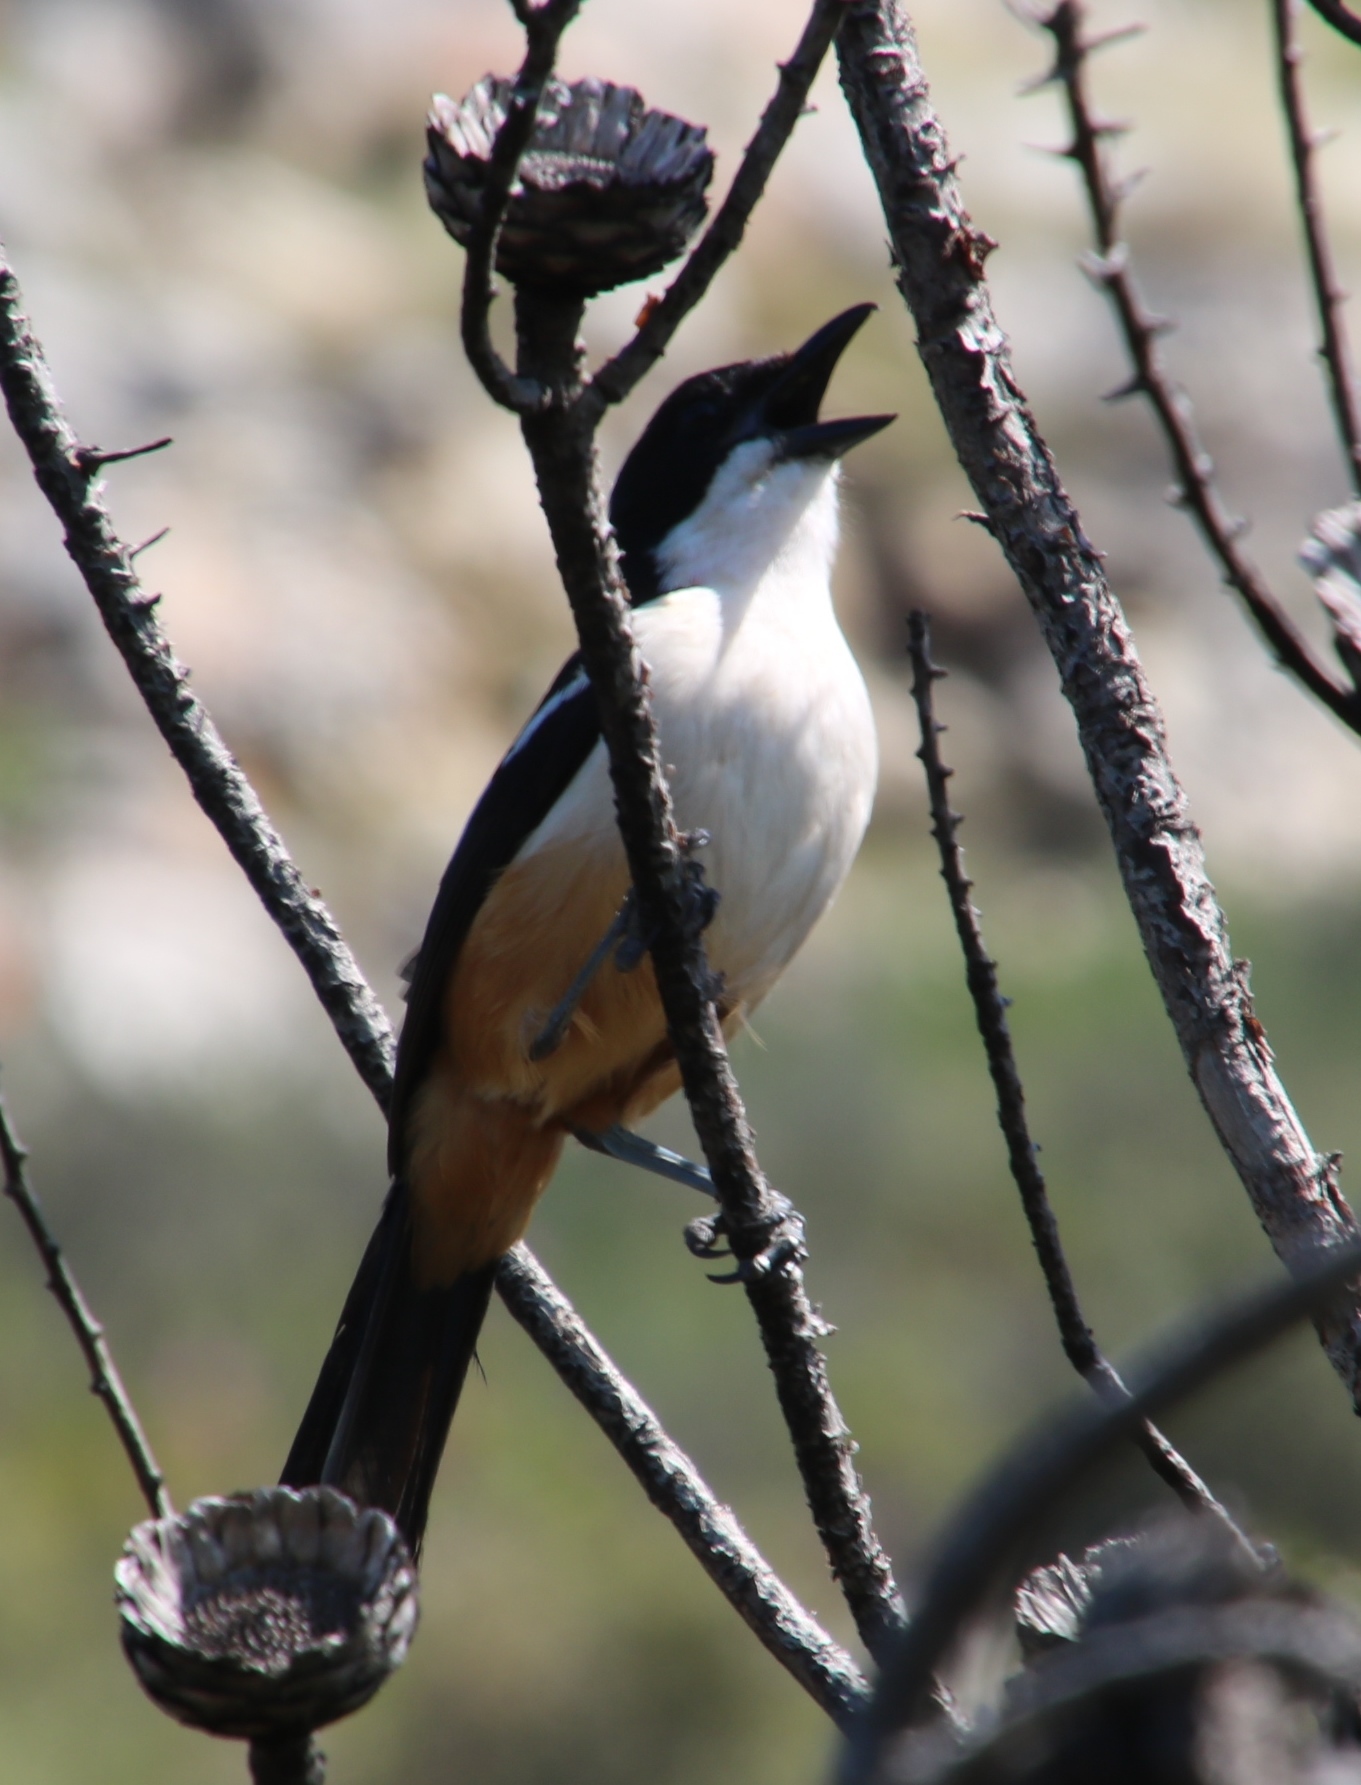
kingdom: Animalia
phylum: Chordata
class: Aves
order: Passeriformes
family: Malaconotidae
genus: Laniarius
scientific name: Laniarius ferrugineus
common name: Southern boubou
